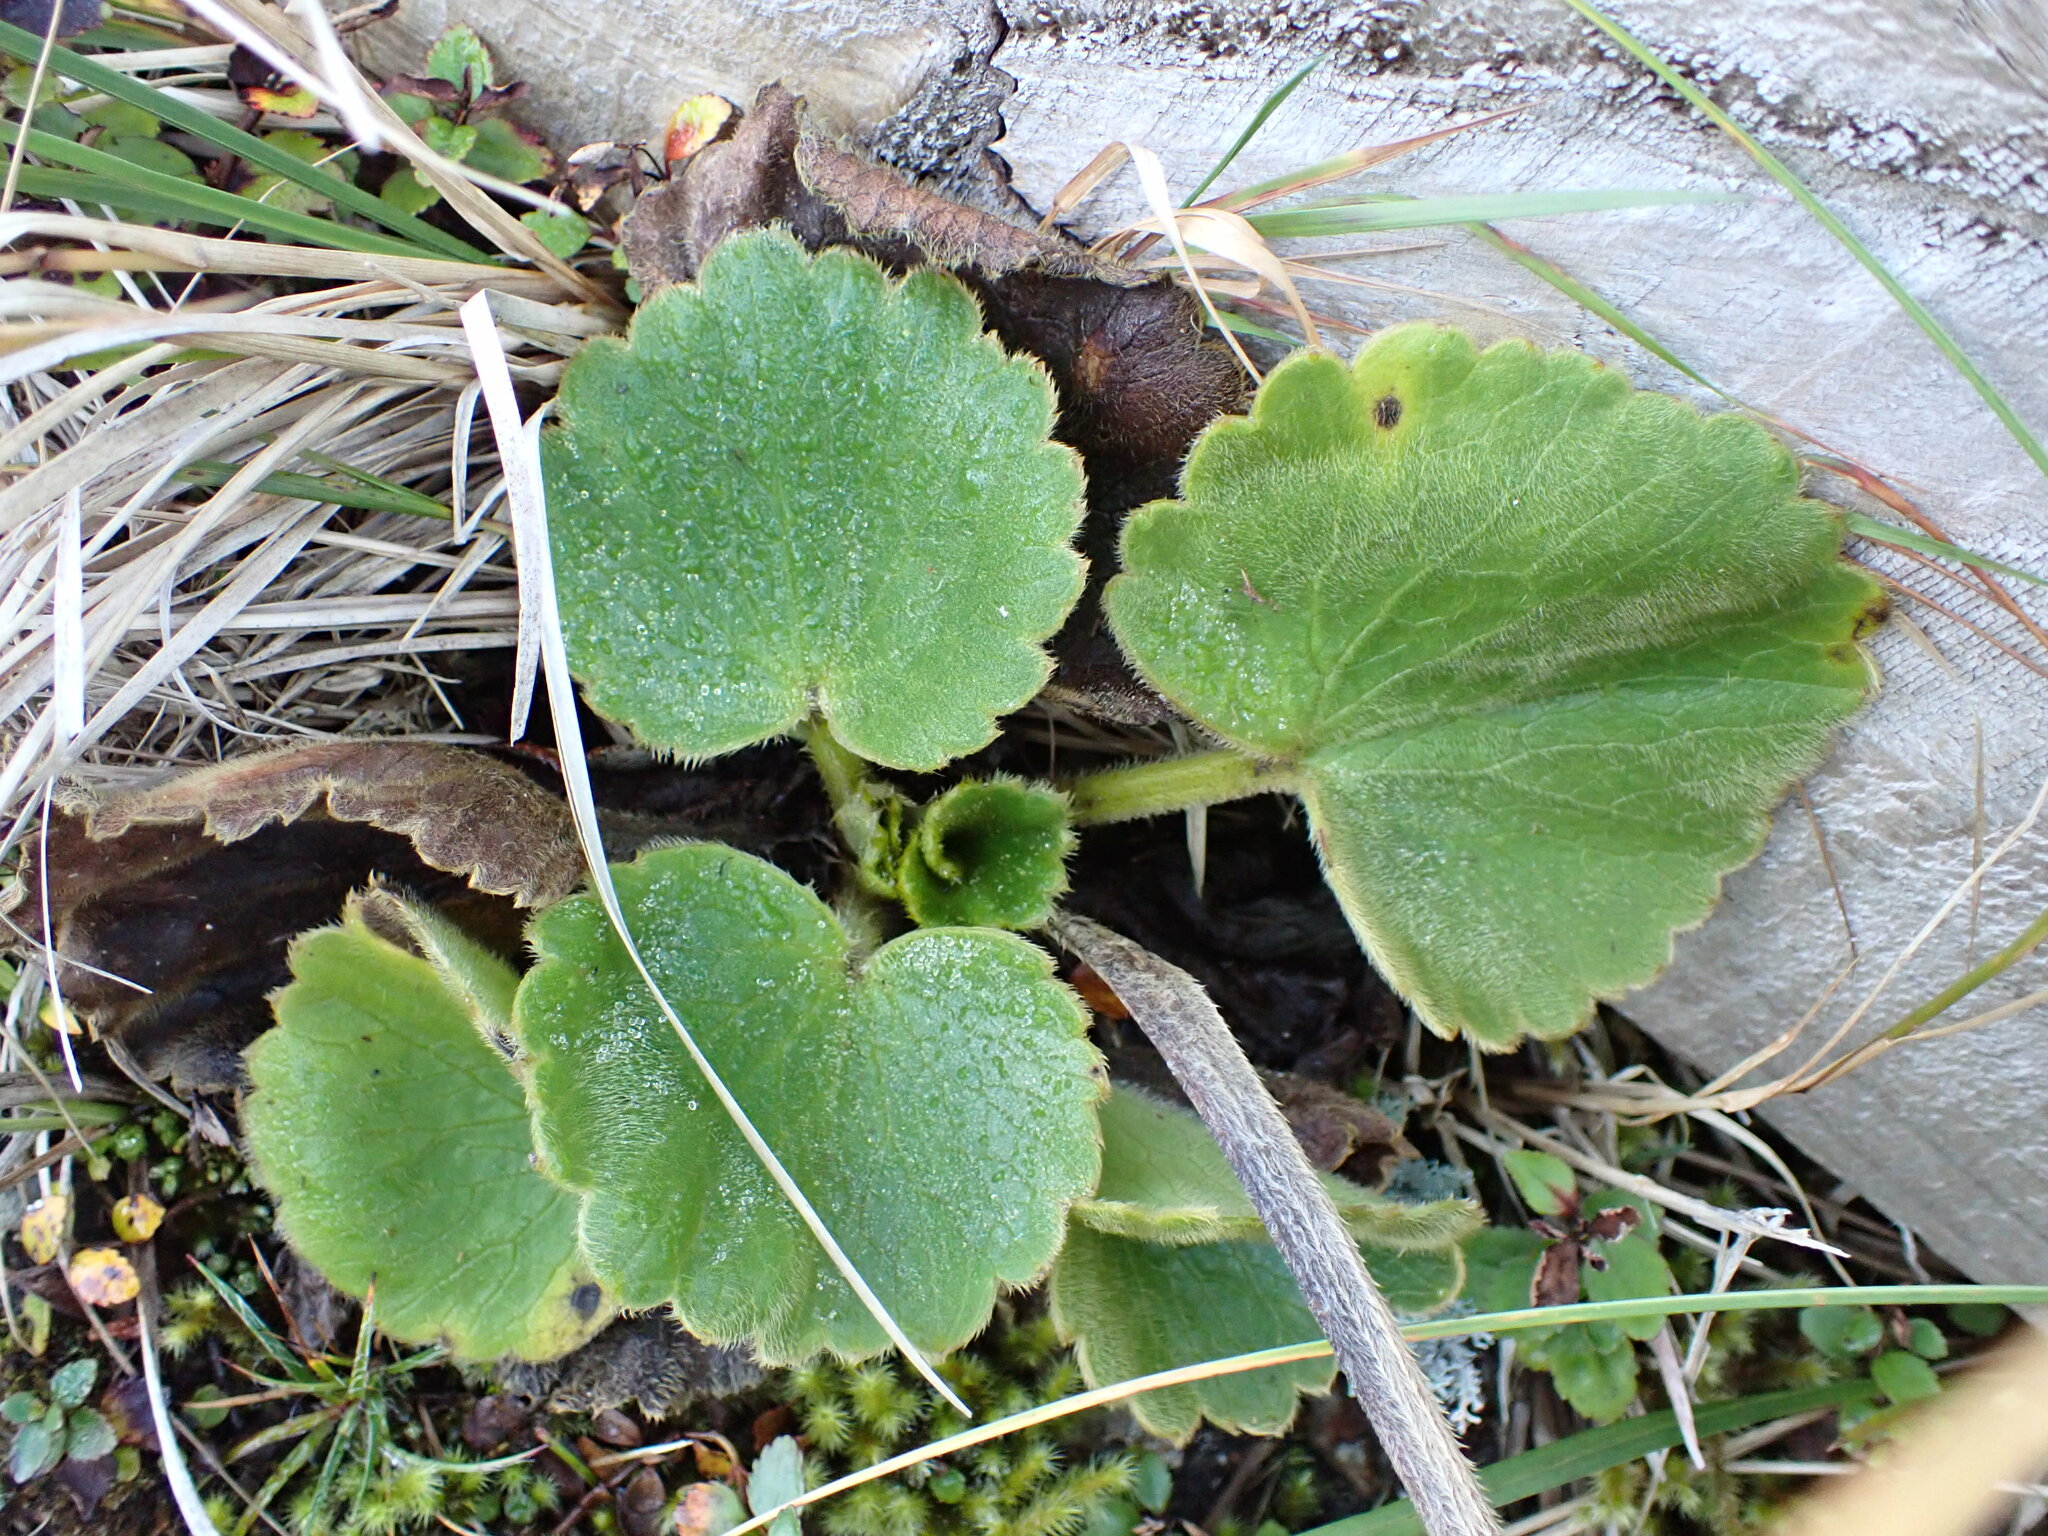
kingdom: Plantae
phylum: Tracheophyta
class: Magnoliopsida
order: Ranunculales
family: Ranunculaceae
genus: Ranunculus
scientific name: Ranunculus insignis
